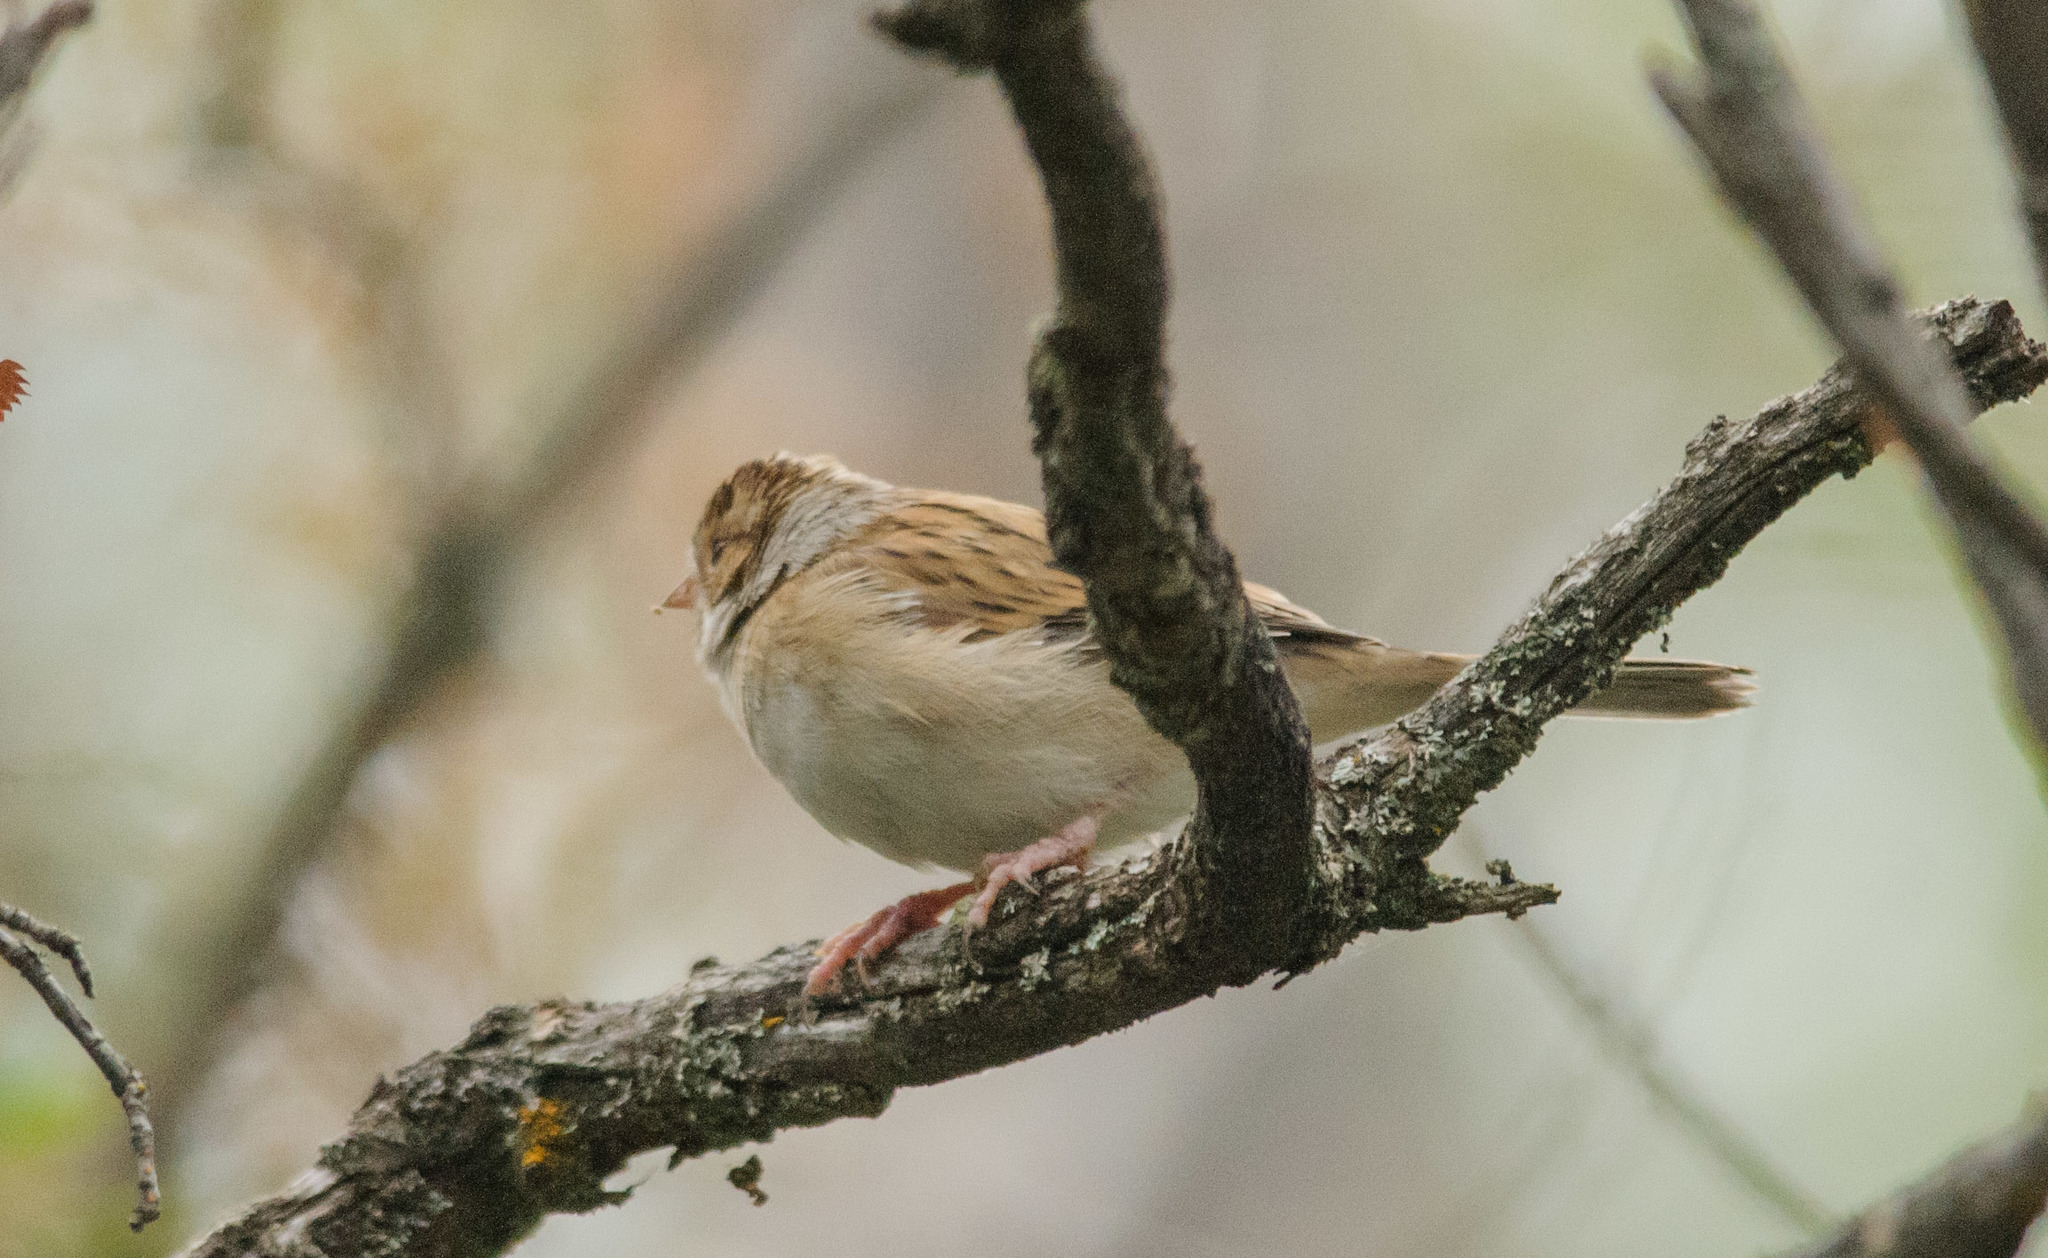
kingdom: Animalia
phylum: Chordata
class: Aves
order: Passeriformes
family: Passerellidae
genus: Spizella
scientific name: Spizella pallida
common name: Clay-colored sparrow
